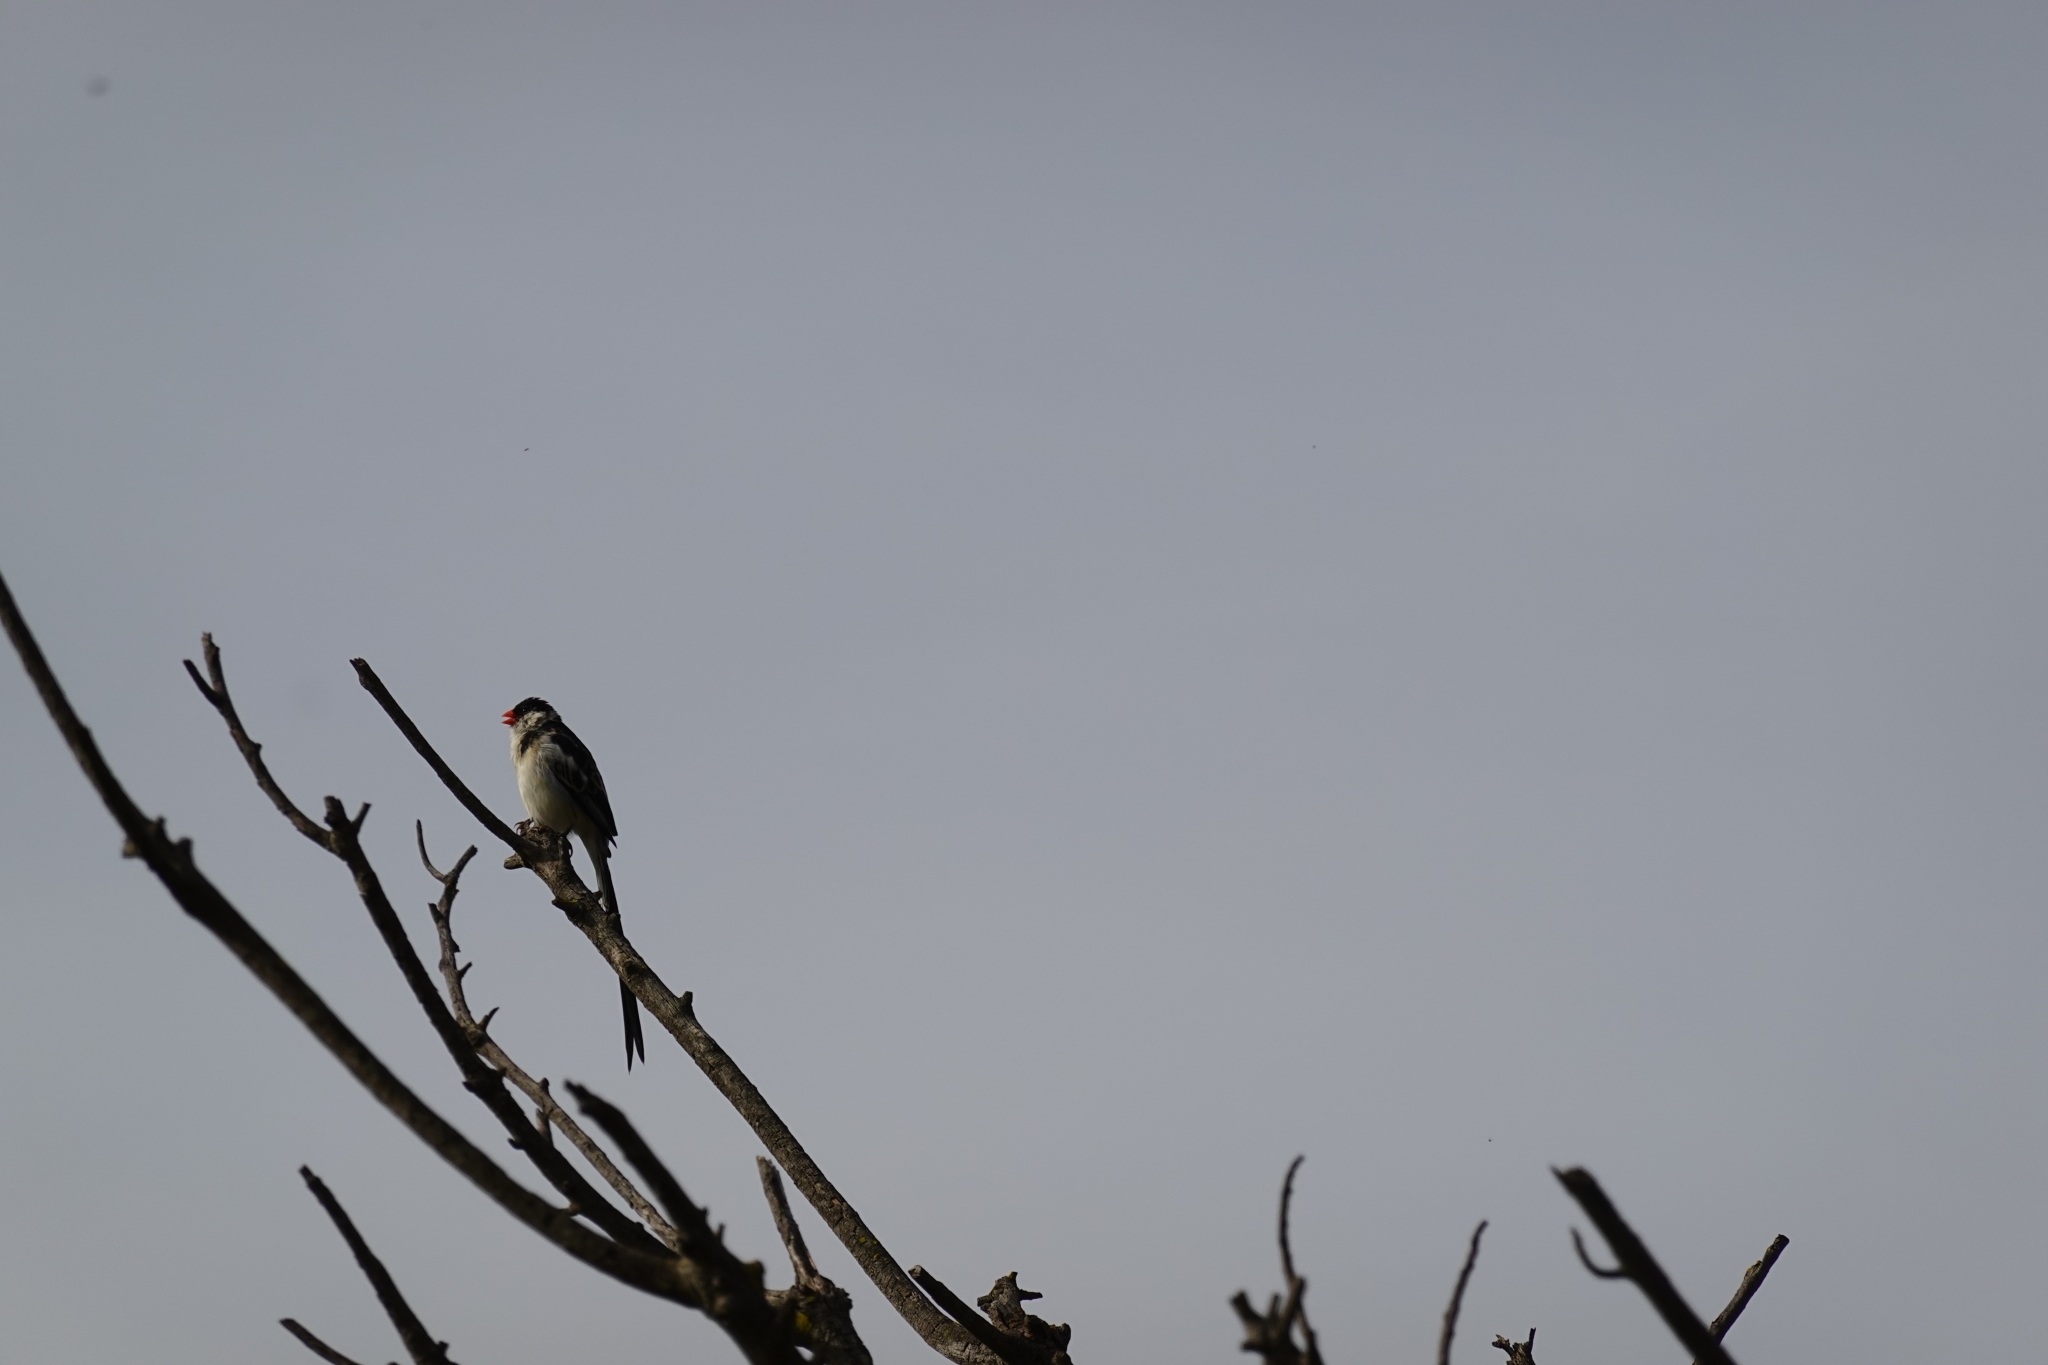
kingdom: Animalia
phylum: Chordata
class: Aves
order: Passeriformes
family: Viduidae
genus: Vidua
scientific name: Vidua macroura
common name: Pin-tailed whydah
